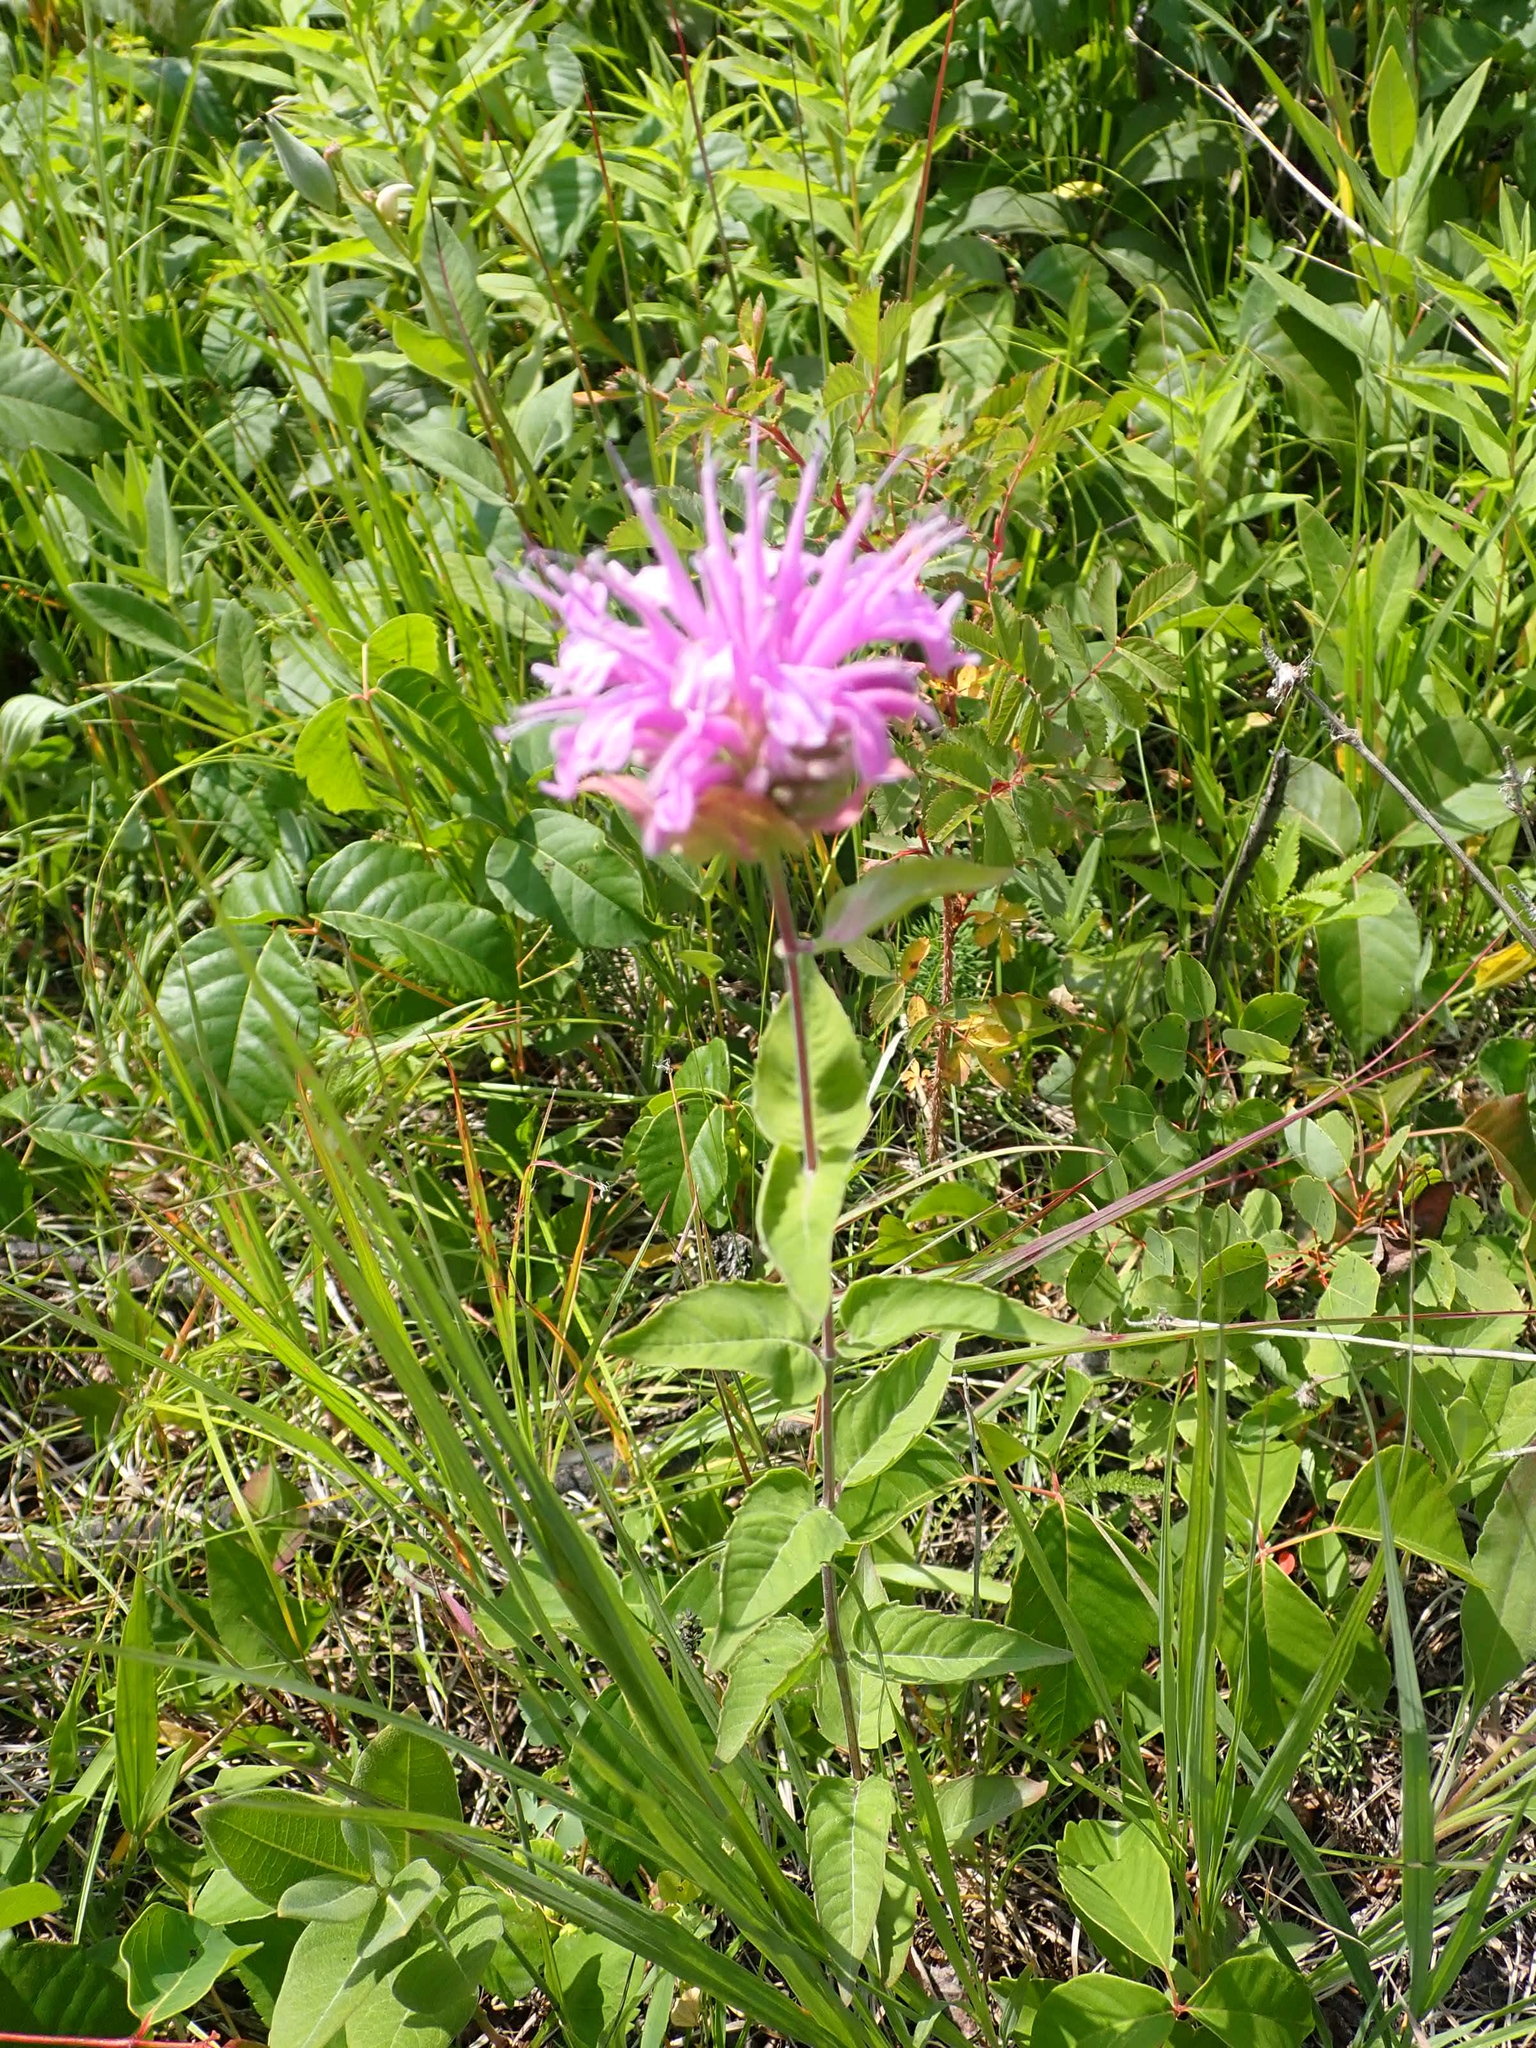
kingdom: Plantae
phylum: Tracheophyta
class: Magnoliopsida
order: Lamiales
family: Lamiaceae
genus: Monarda
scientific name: Monarda fistulosa
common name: Purple beebalm
